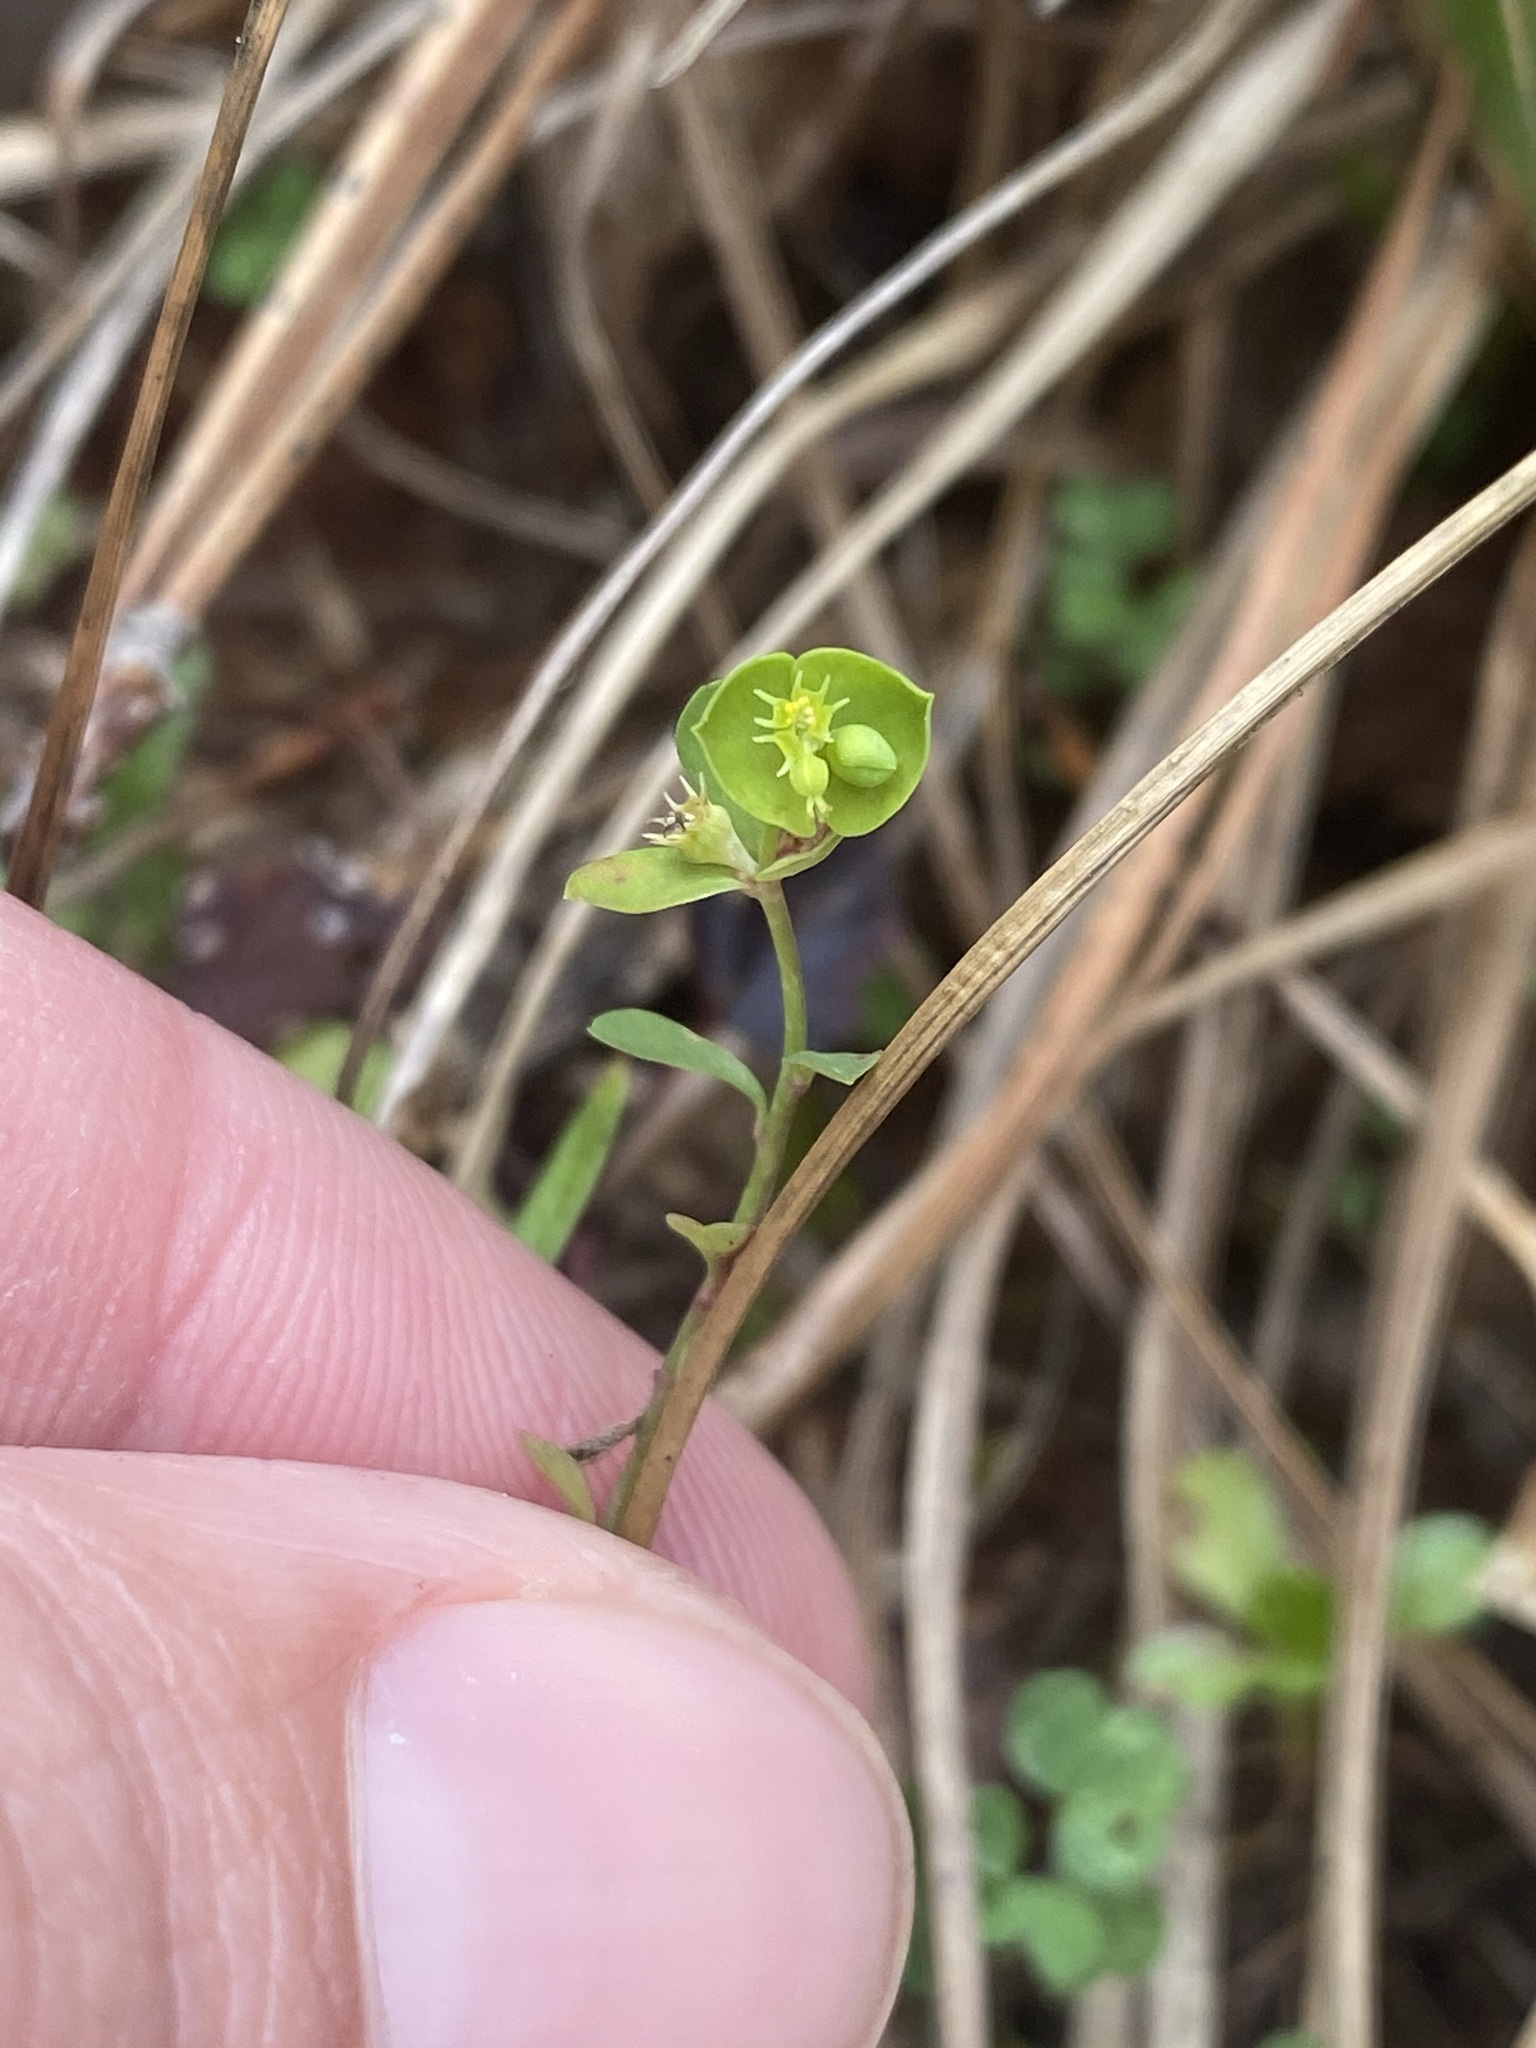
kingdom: Plantae
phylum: Tracheophyta
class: Magnoliopsida
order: Malpighiales
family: Euphorbiaceae
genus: Euphorbia
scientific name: Euphorbia tetrapora
